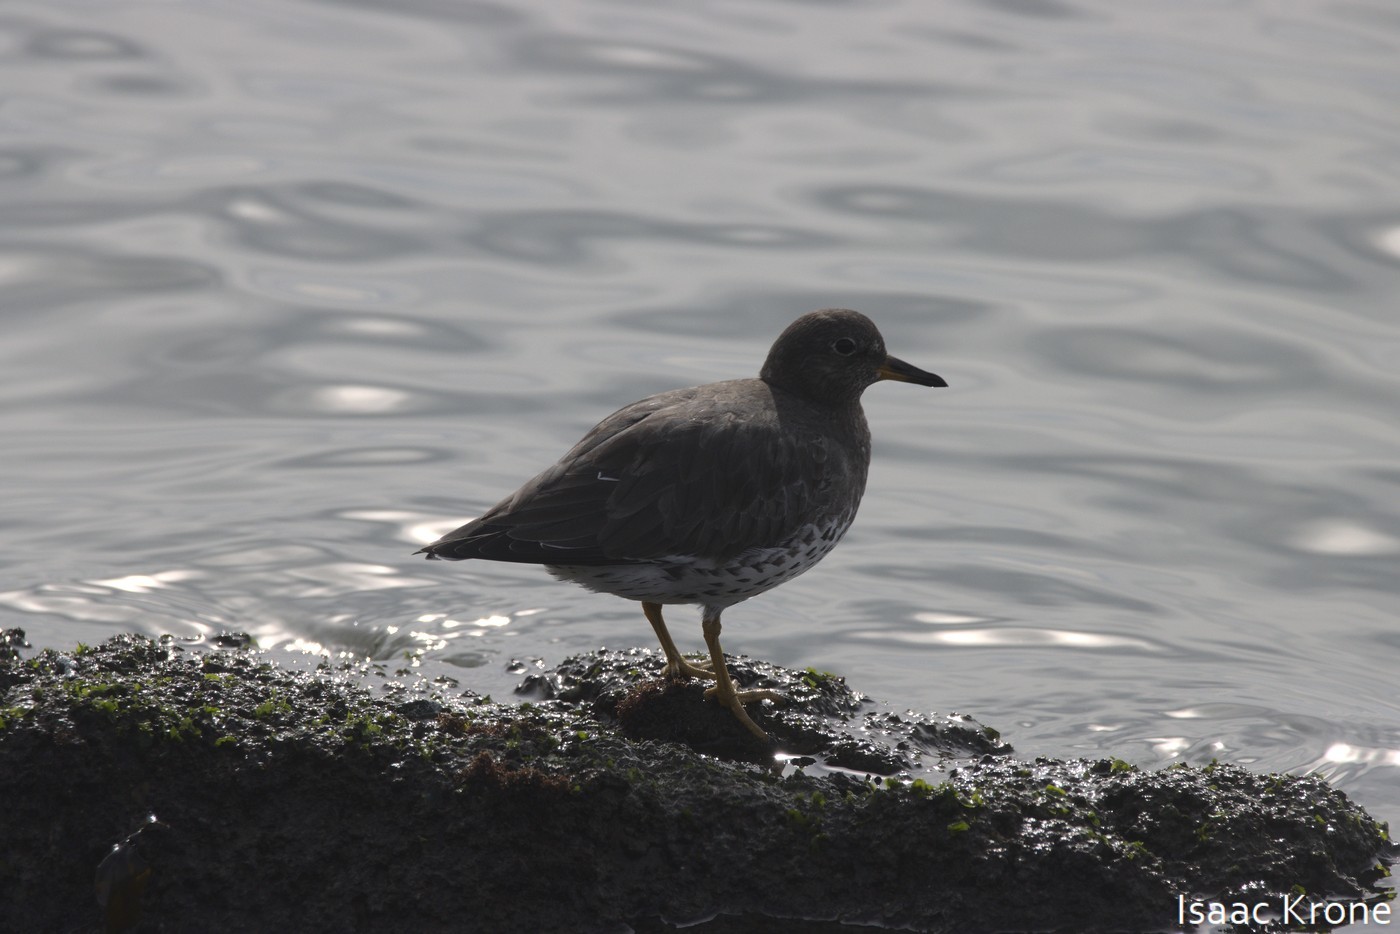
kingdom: Animalia
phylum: Chordata
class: Aves
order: Charadriiformes
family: Scolopacidae
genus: Calidris
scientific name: Calidris virgata
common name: Surfbird
